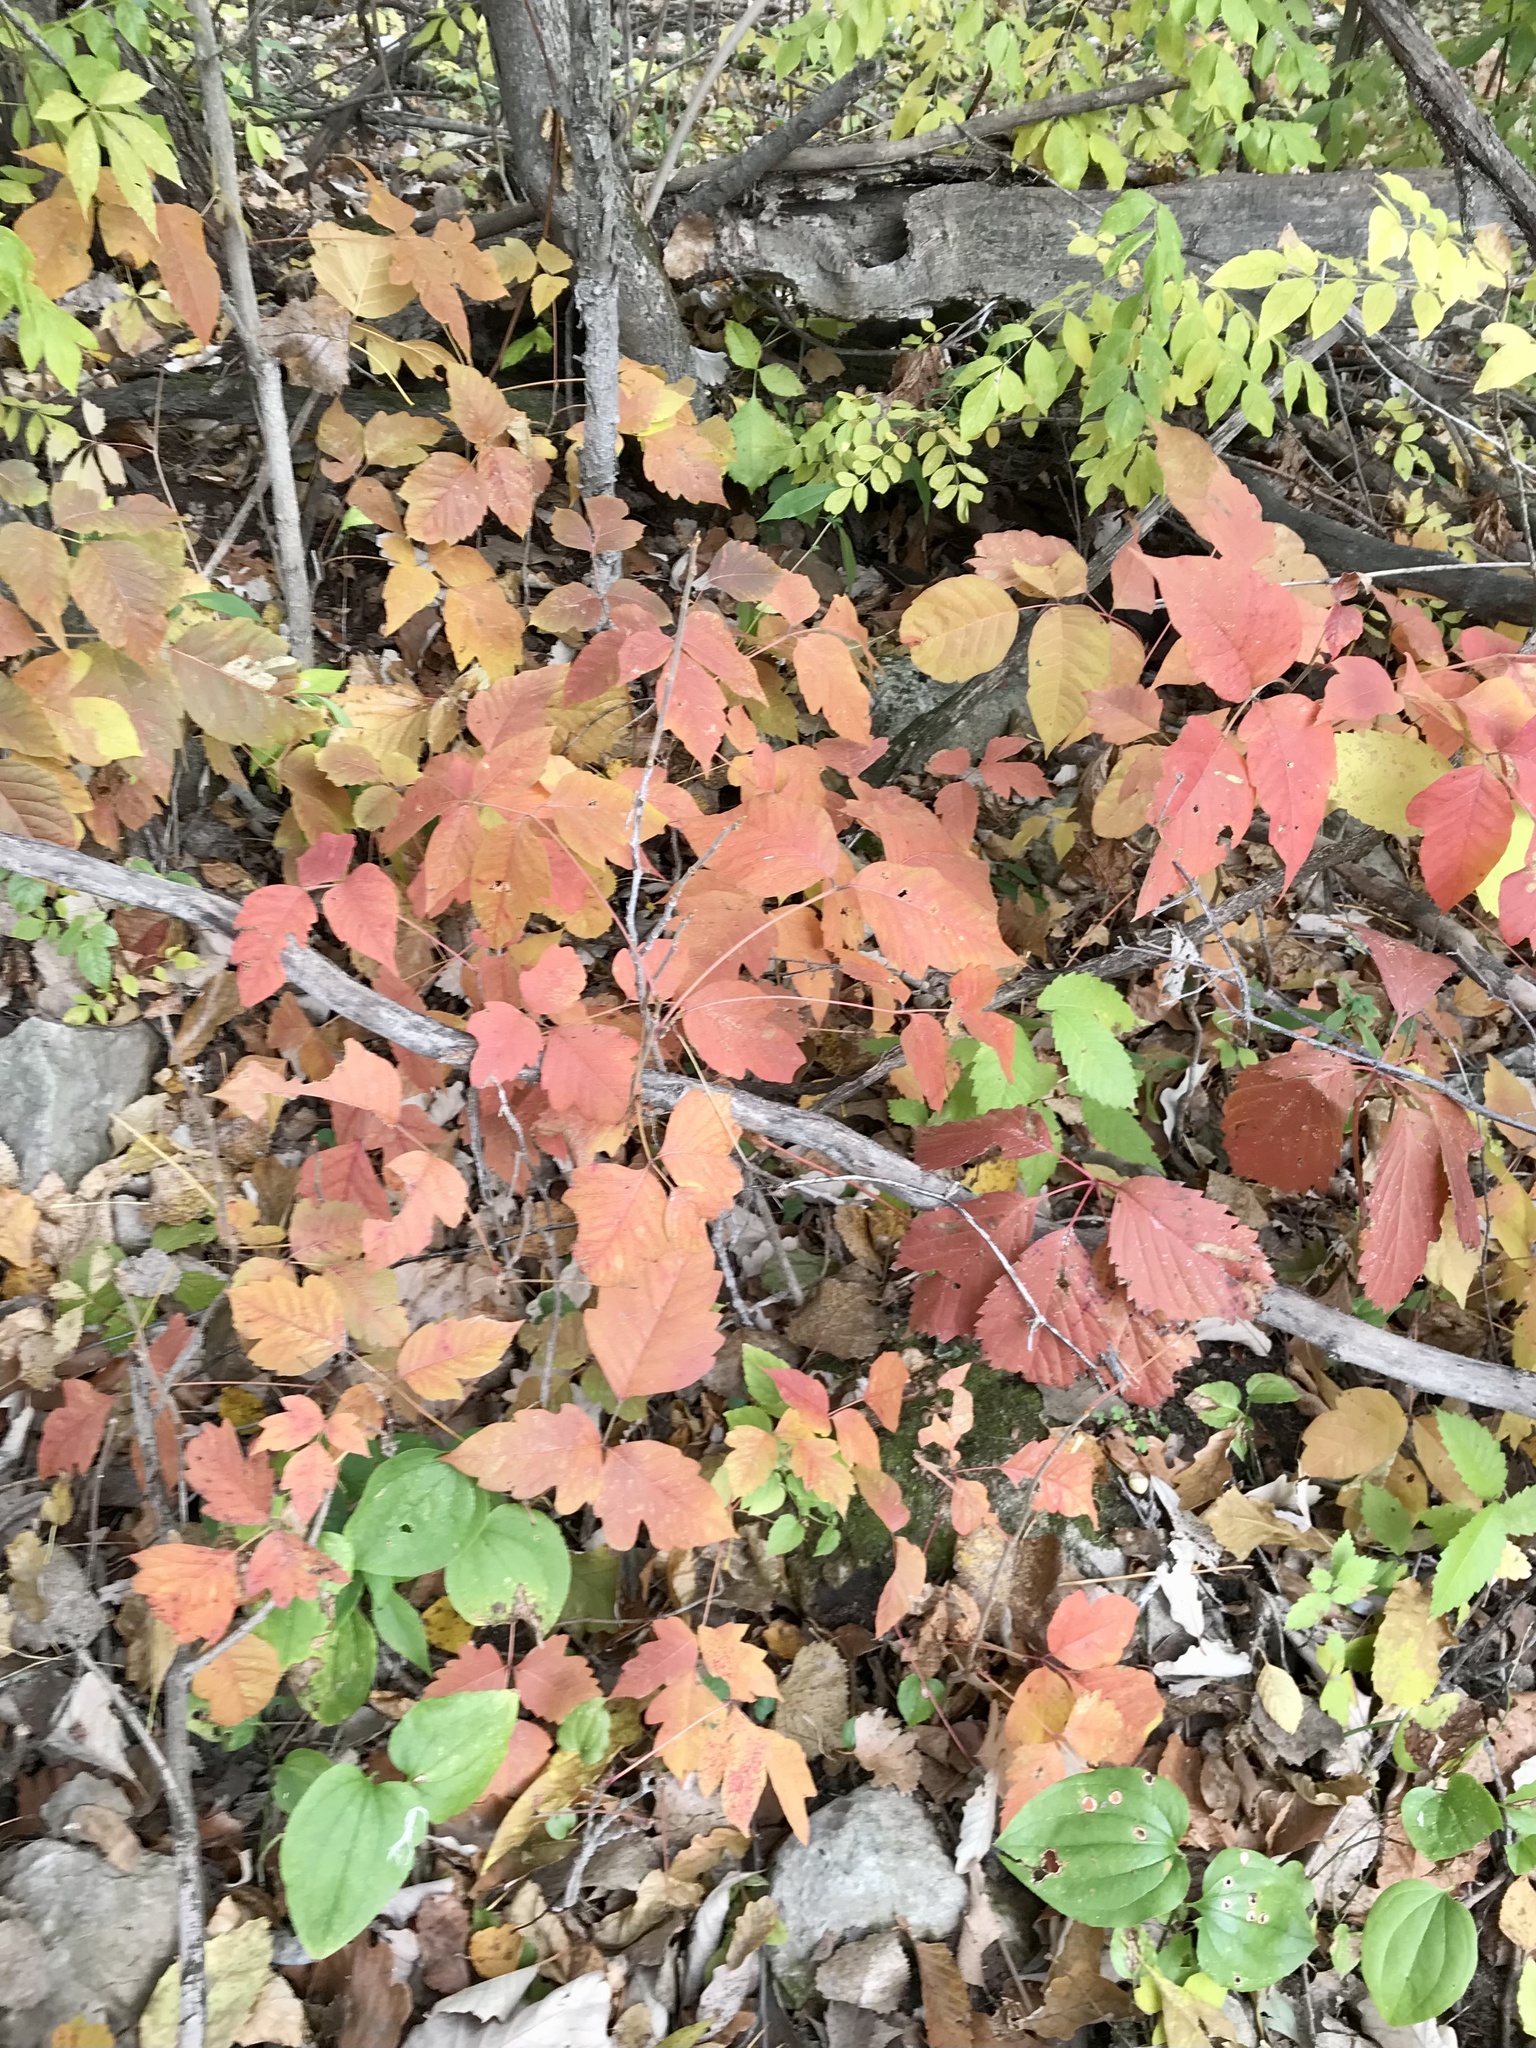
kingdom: Plantae
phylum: Tracheophyta
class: Magnoliopsida
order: Sapindales
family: Anacardiaceae
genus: Toxicodendron
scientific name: Toxicodendron radicans
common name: Poison ivy
